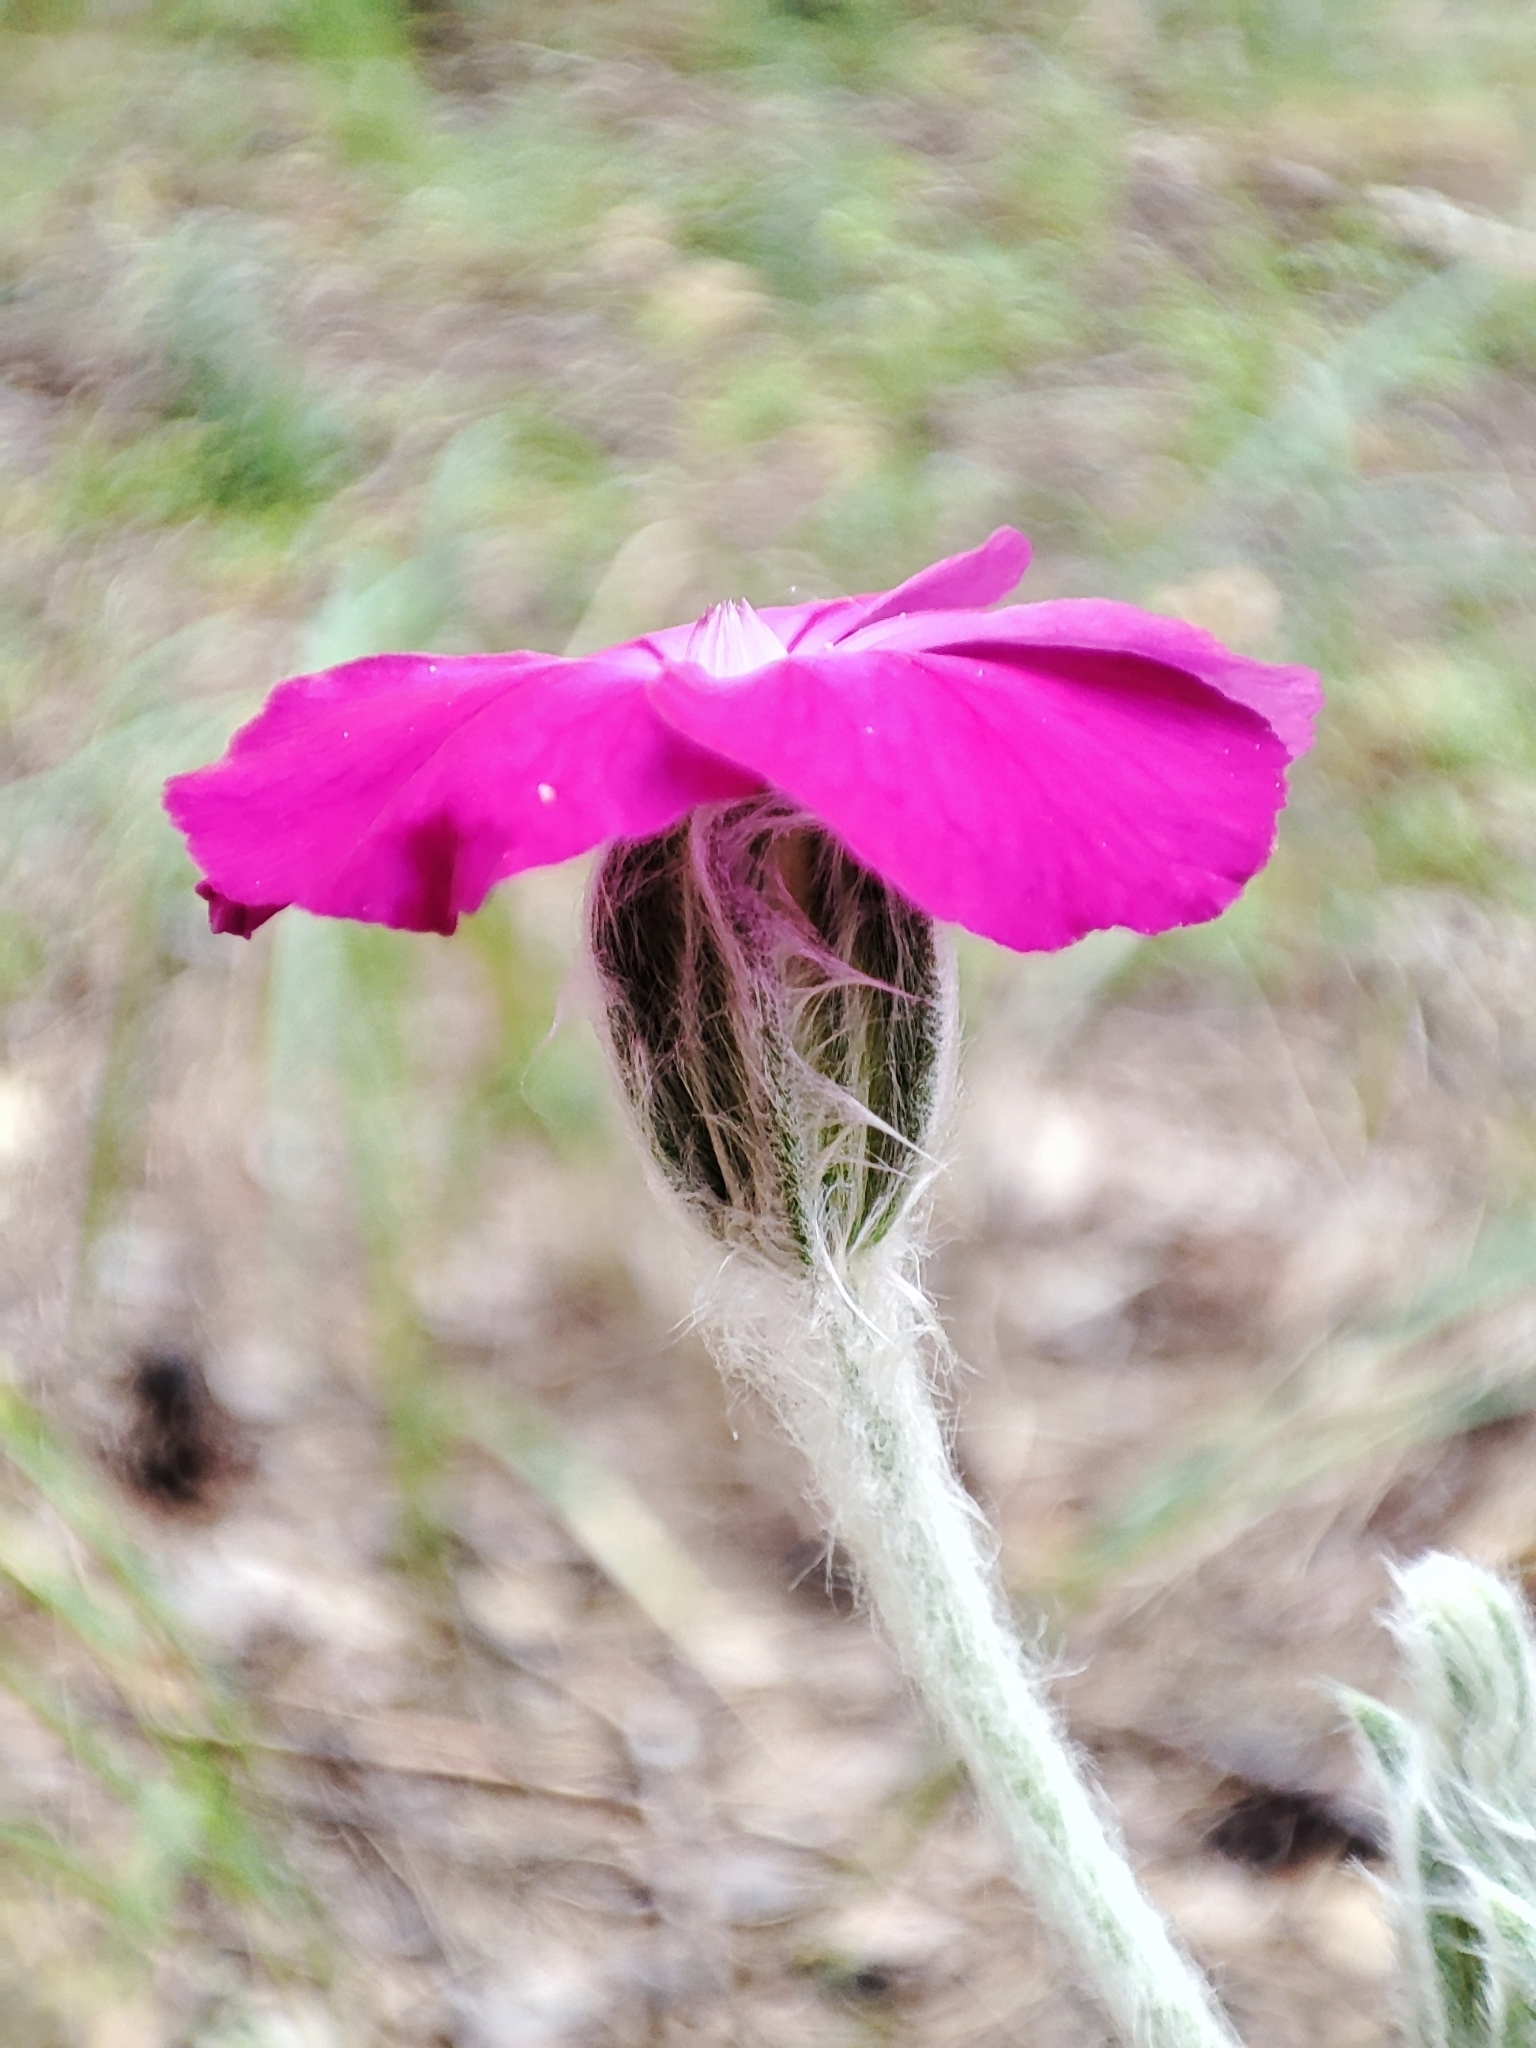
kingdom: Plantae
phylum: Tracheophyta
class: Magnoliopsida
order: Caryophyllales
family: Caryophyllaceae
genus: Silene
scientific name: Silene coronaria
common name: Rose campion
